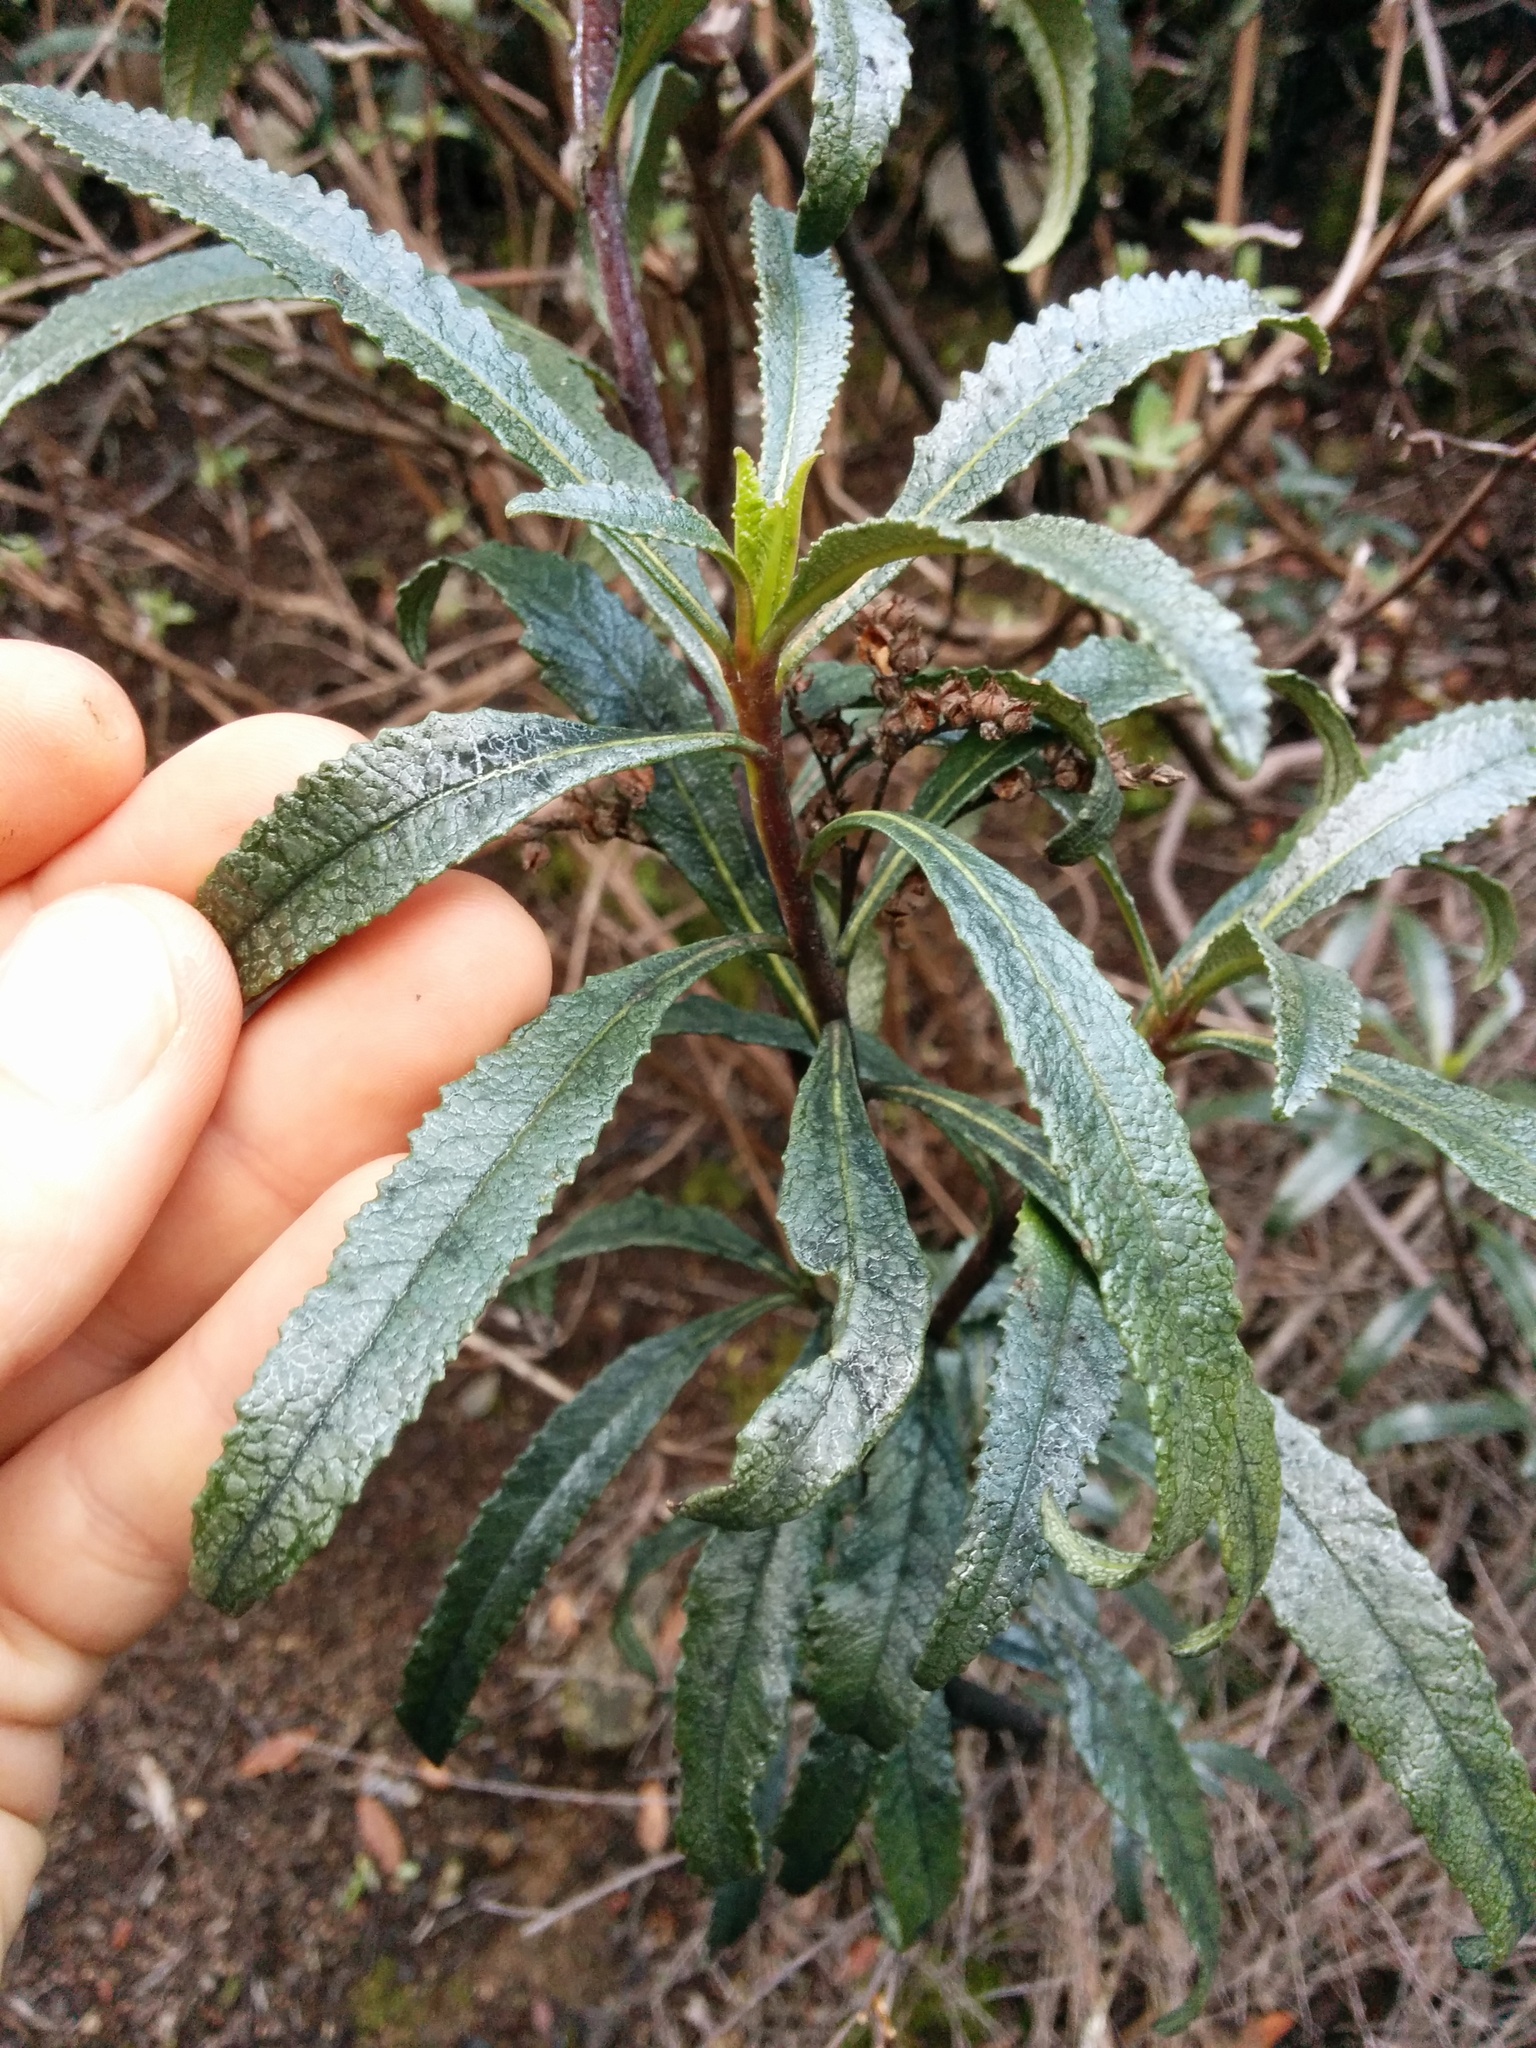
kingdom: Plantae
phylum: Tracheophyta
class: Magnoliopsida
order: Boraginales
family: Namaceae
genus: Eriodictyon
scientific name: Eriodictyon californicum
